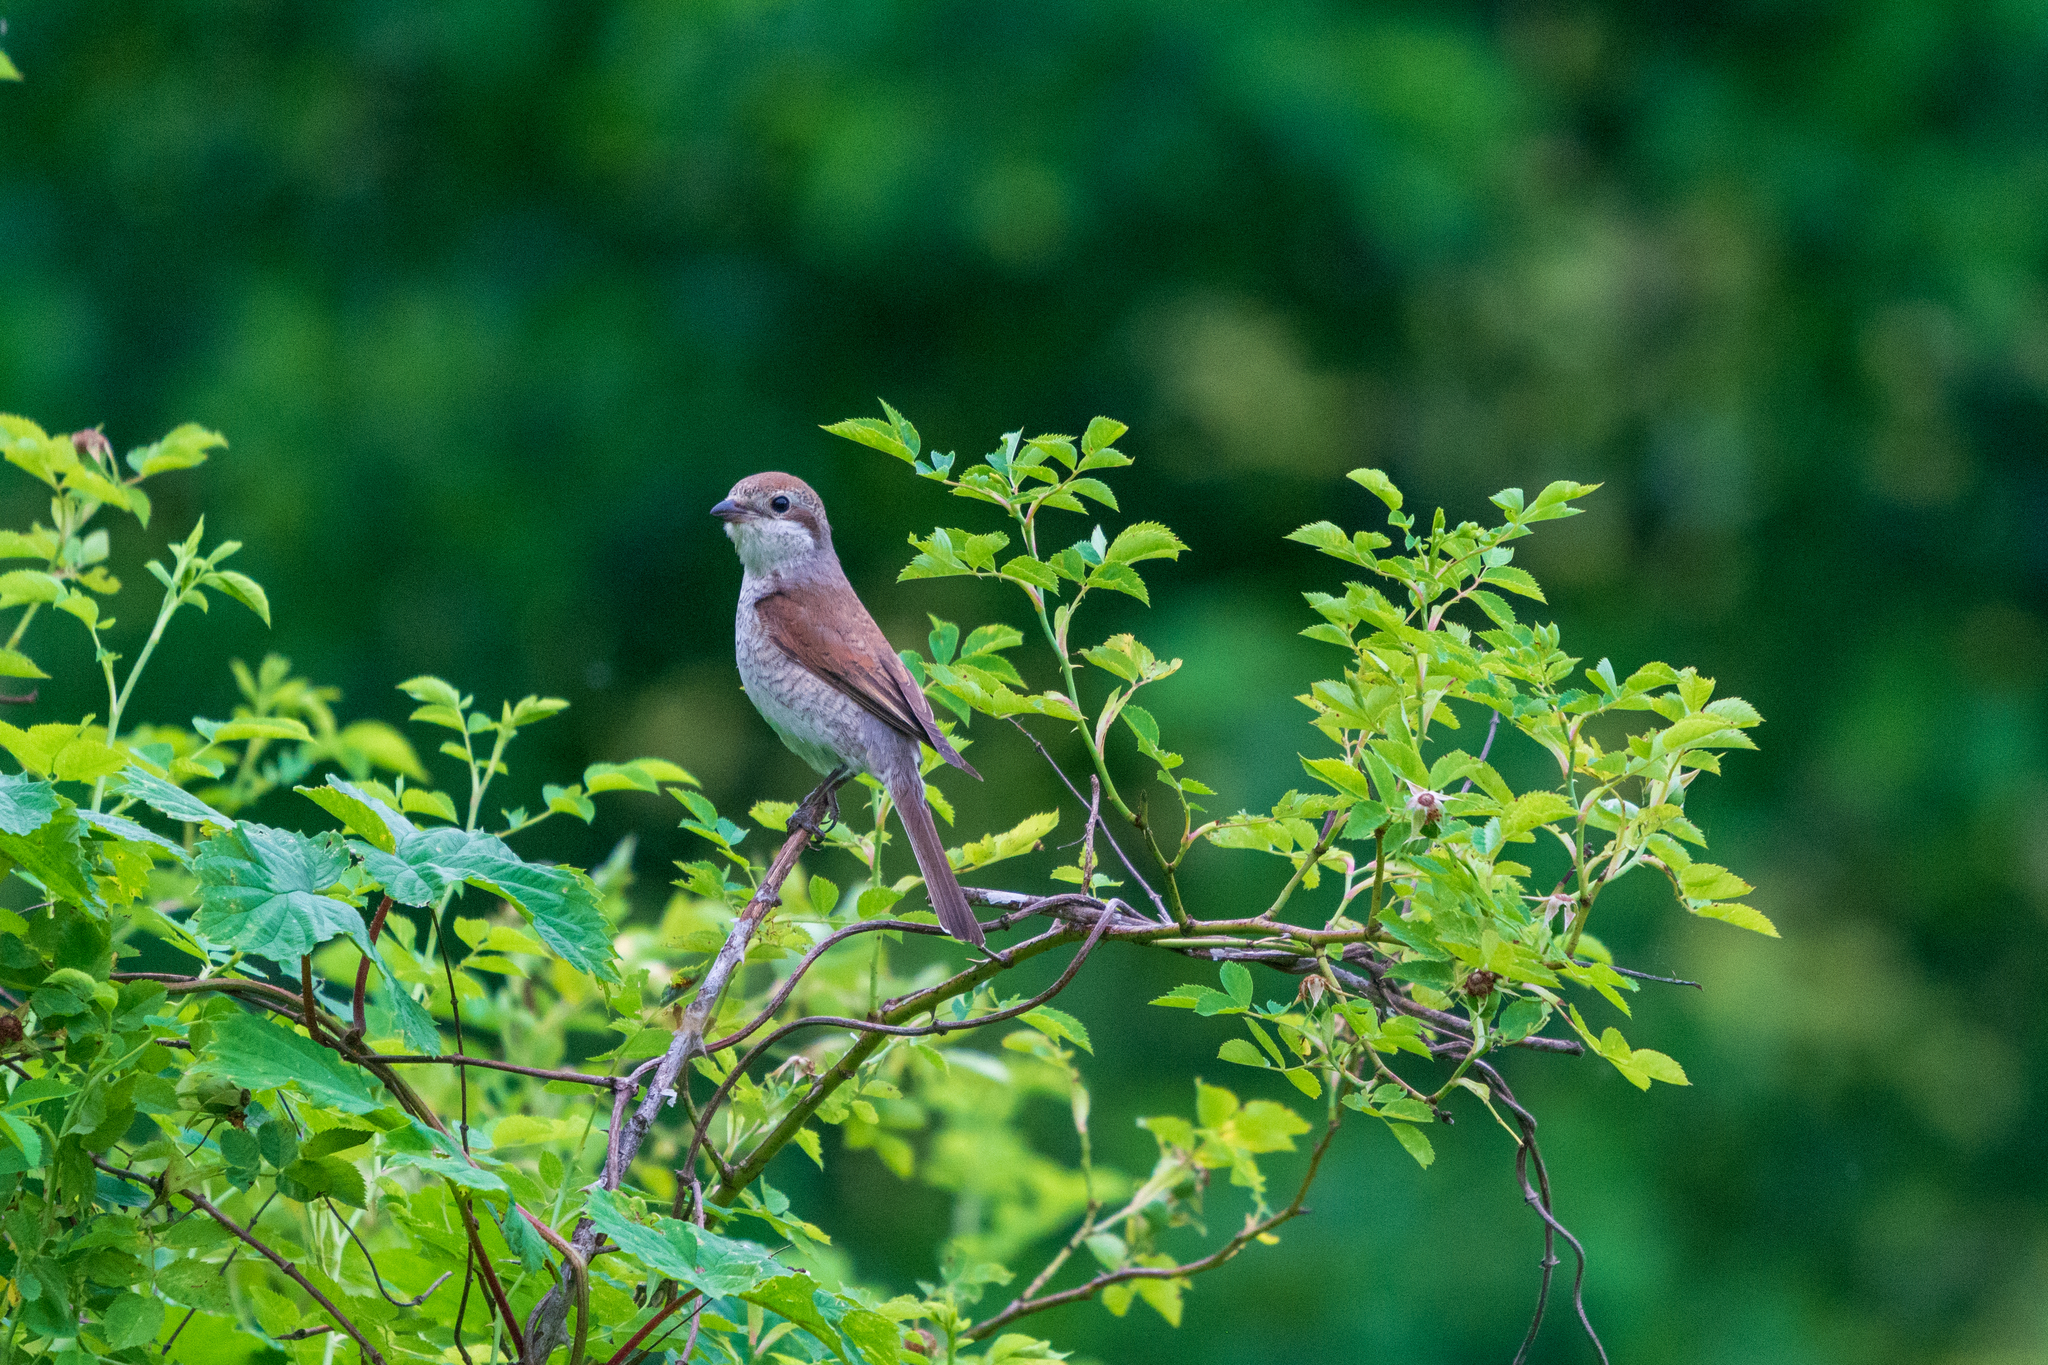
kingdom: Animalia
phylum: Chordata
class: Aves
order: Passeriformes
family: Laniidae
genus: Lanius
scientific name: Lanius collurio
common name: Red-backed shrike
